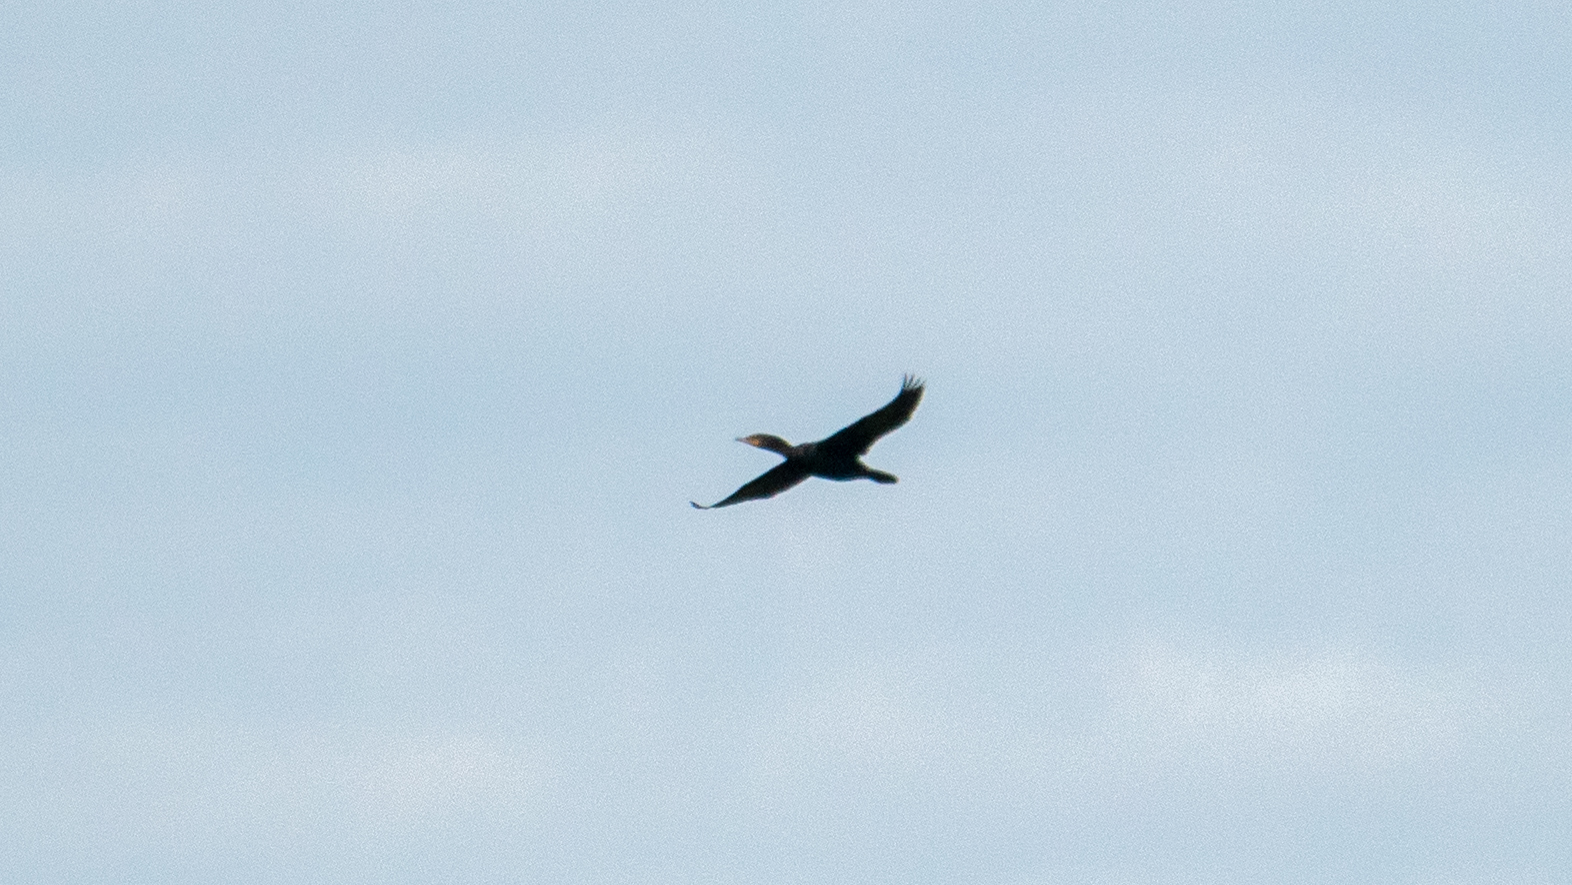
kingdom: Animalia
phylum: Chordata
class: Aves
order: Suliformes
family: Phalacrocoracidae
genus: Phalacrocorax
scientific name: Phalacrocorax auritus
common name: Double-crested cormorant
